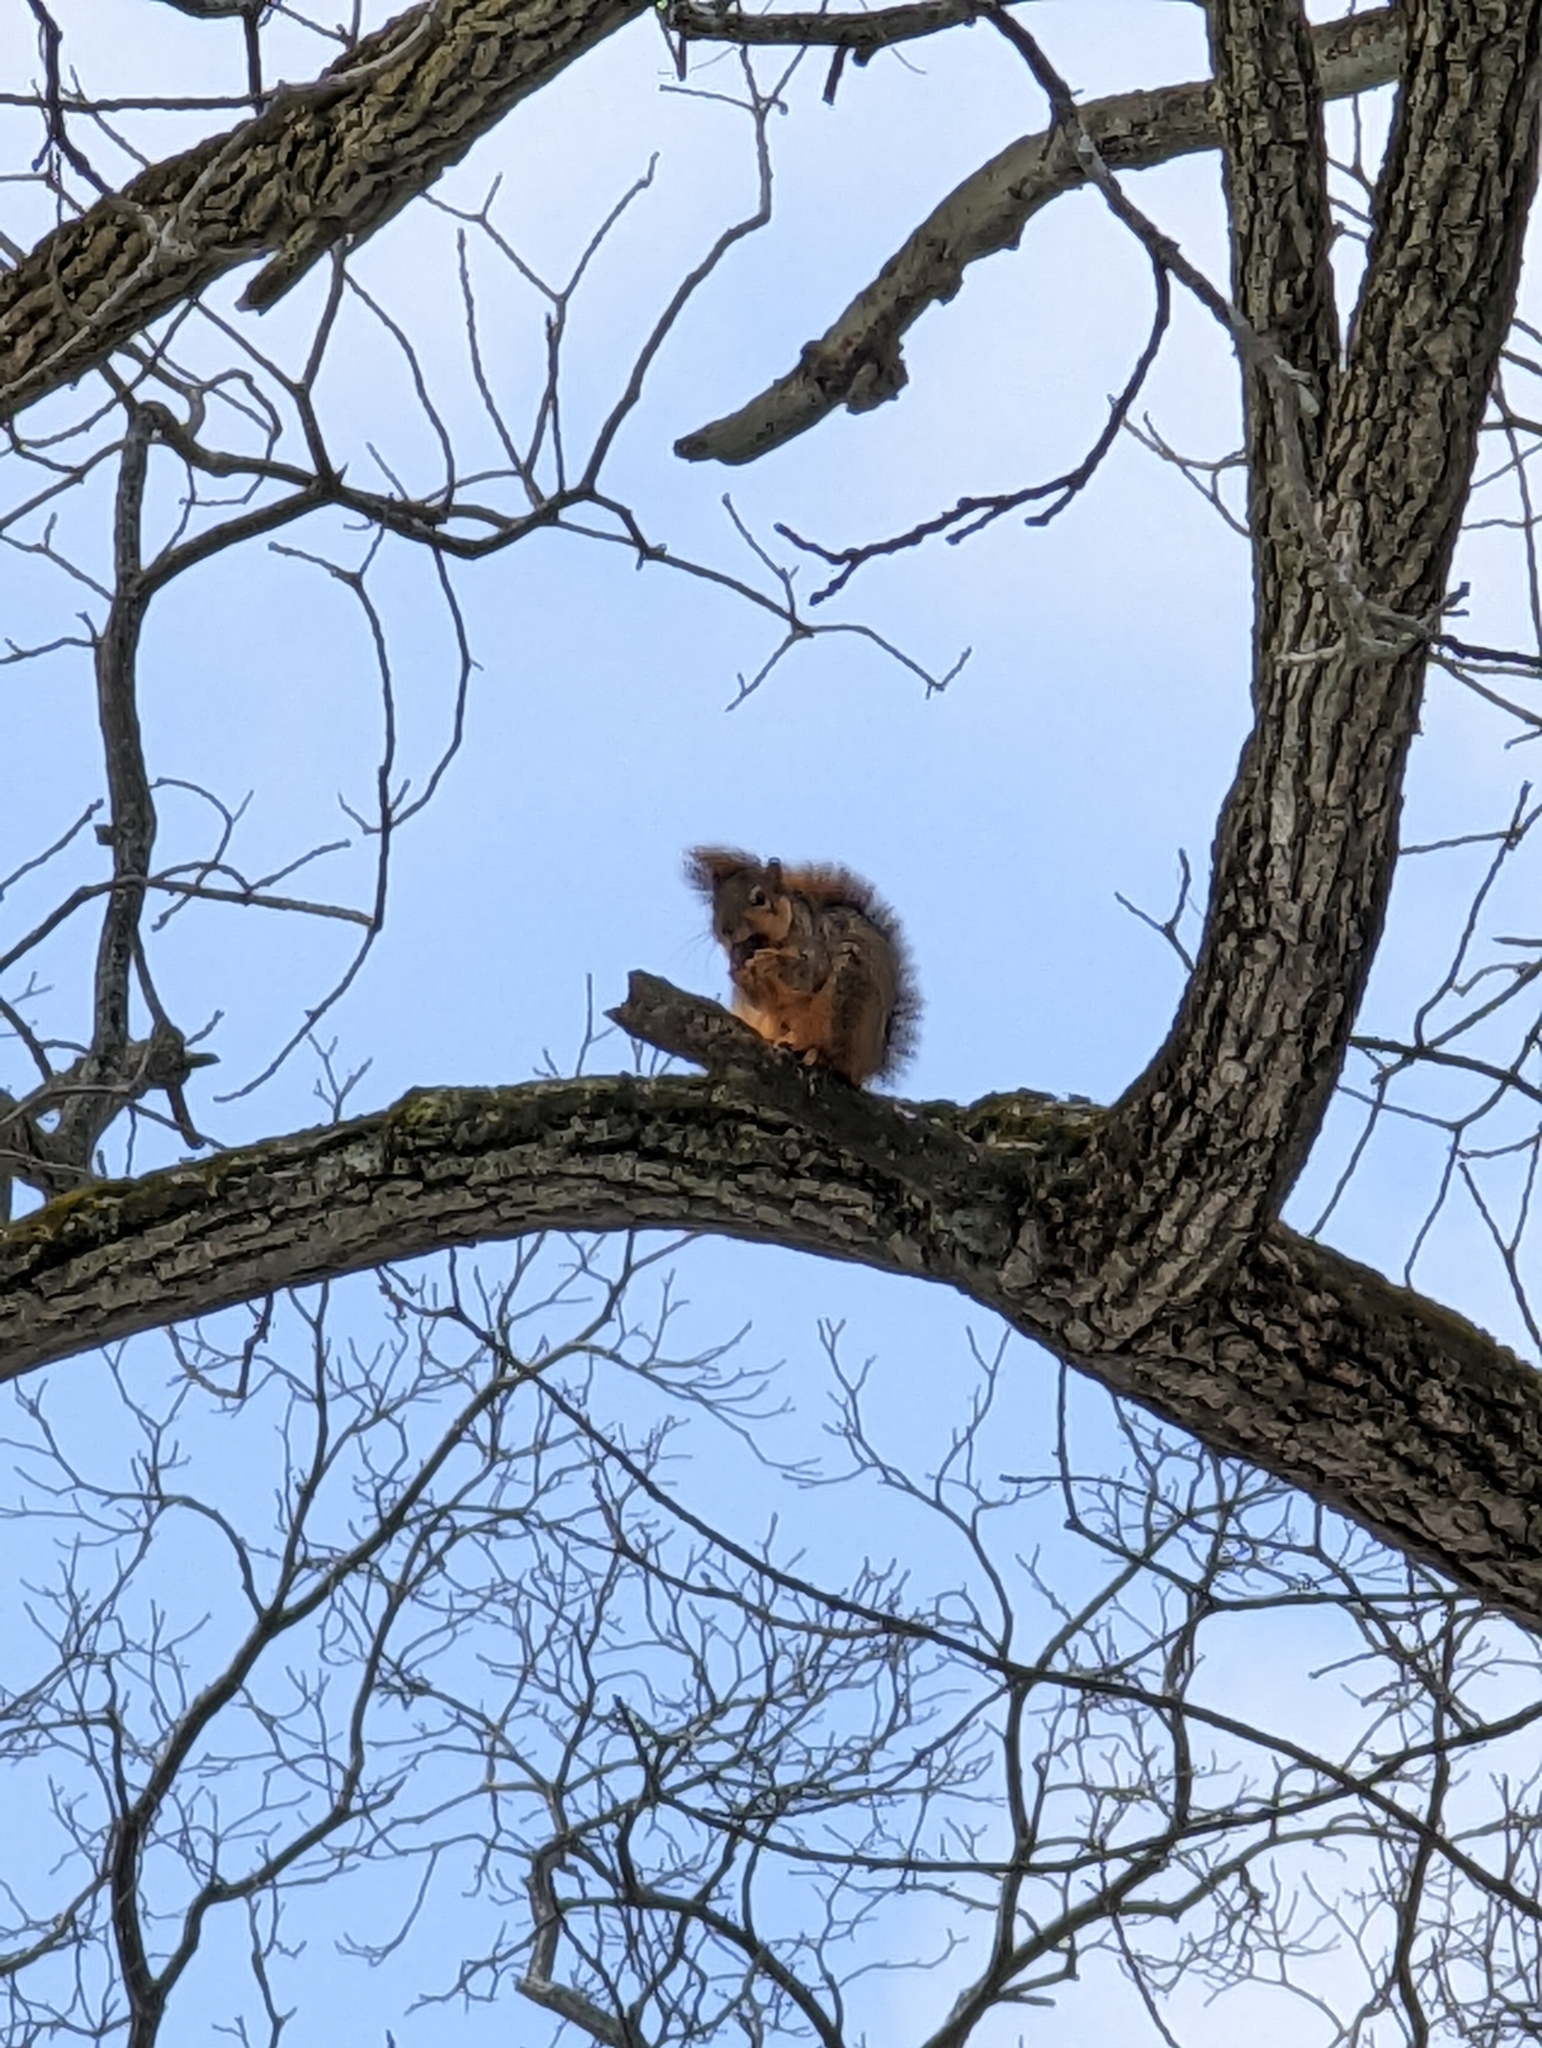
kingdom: Animalia
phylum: Chordata
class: Mammalia
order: Rodentia
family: Sciuridae
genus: Sciurus
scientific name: Sciurus niger
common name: Fox squirrel
